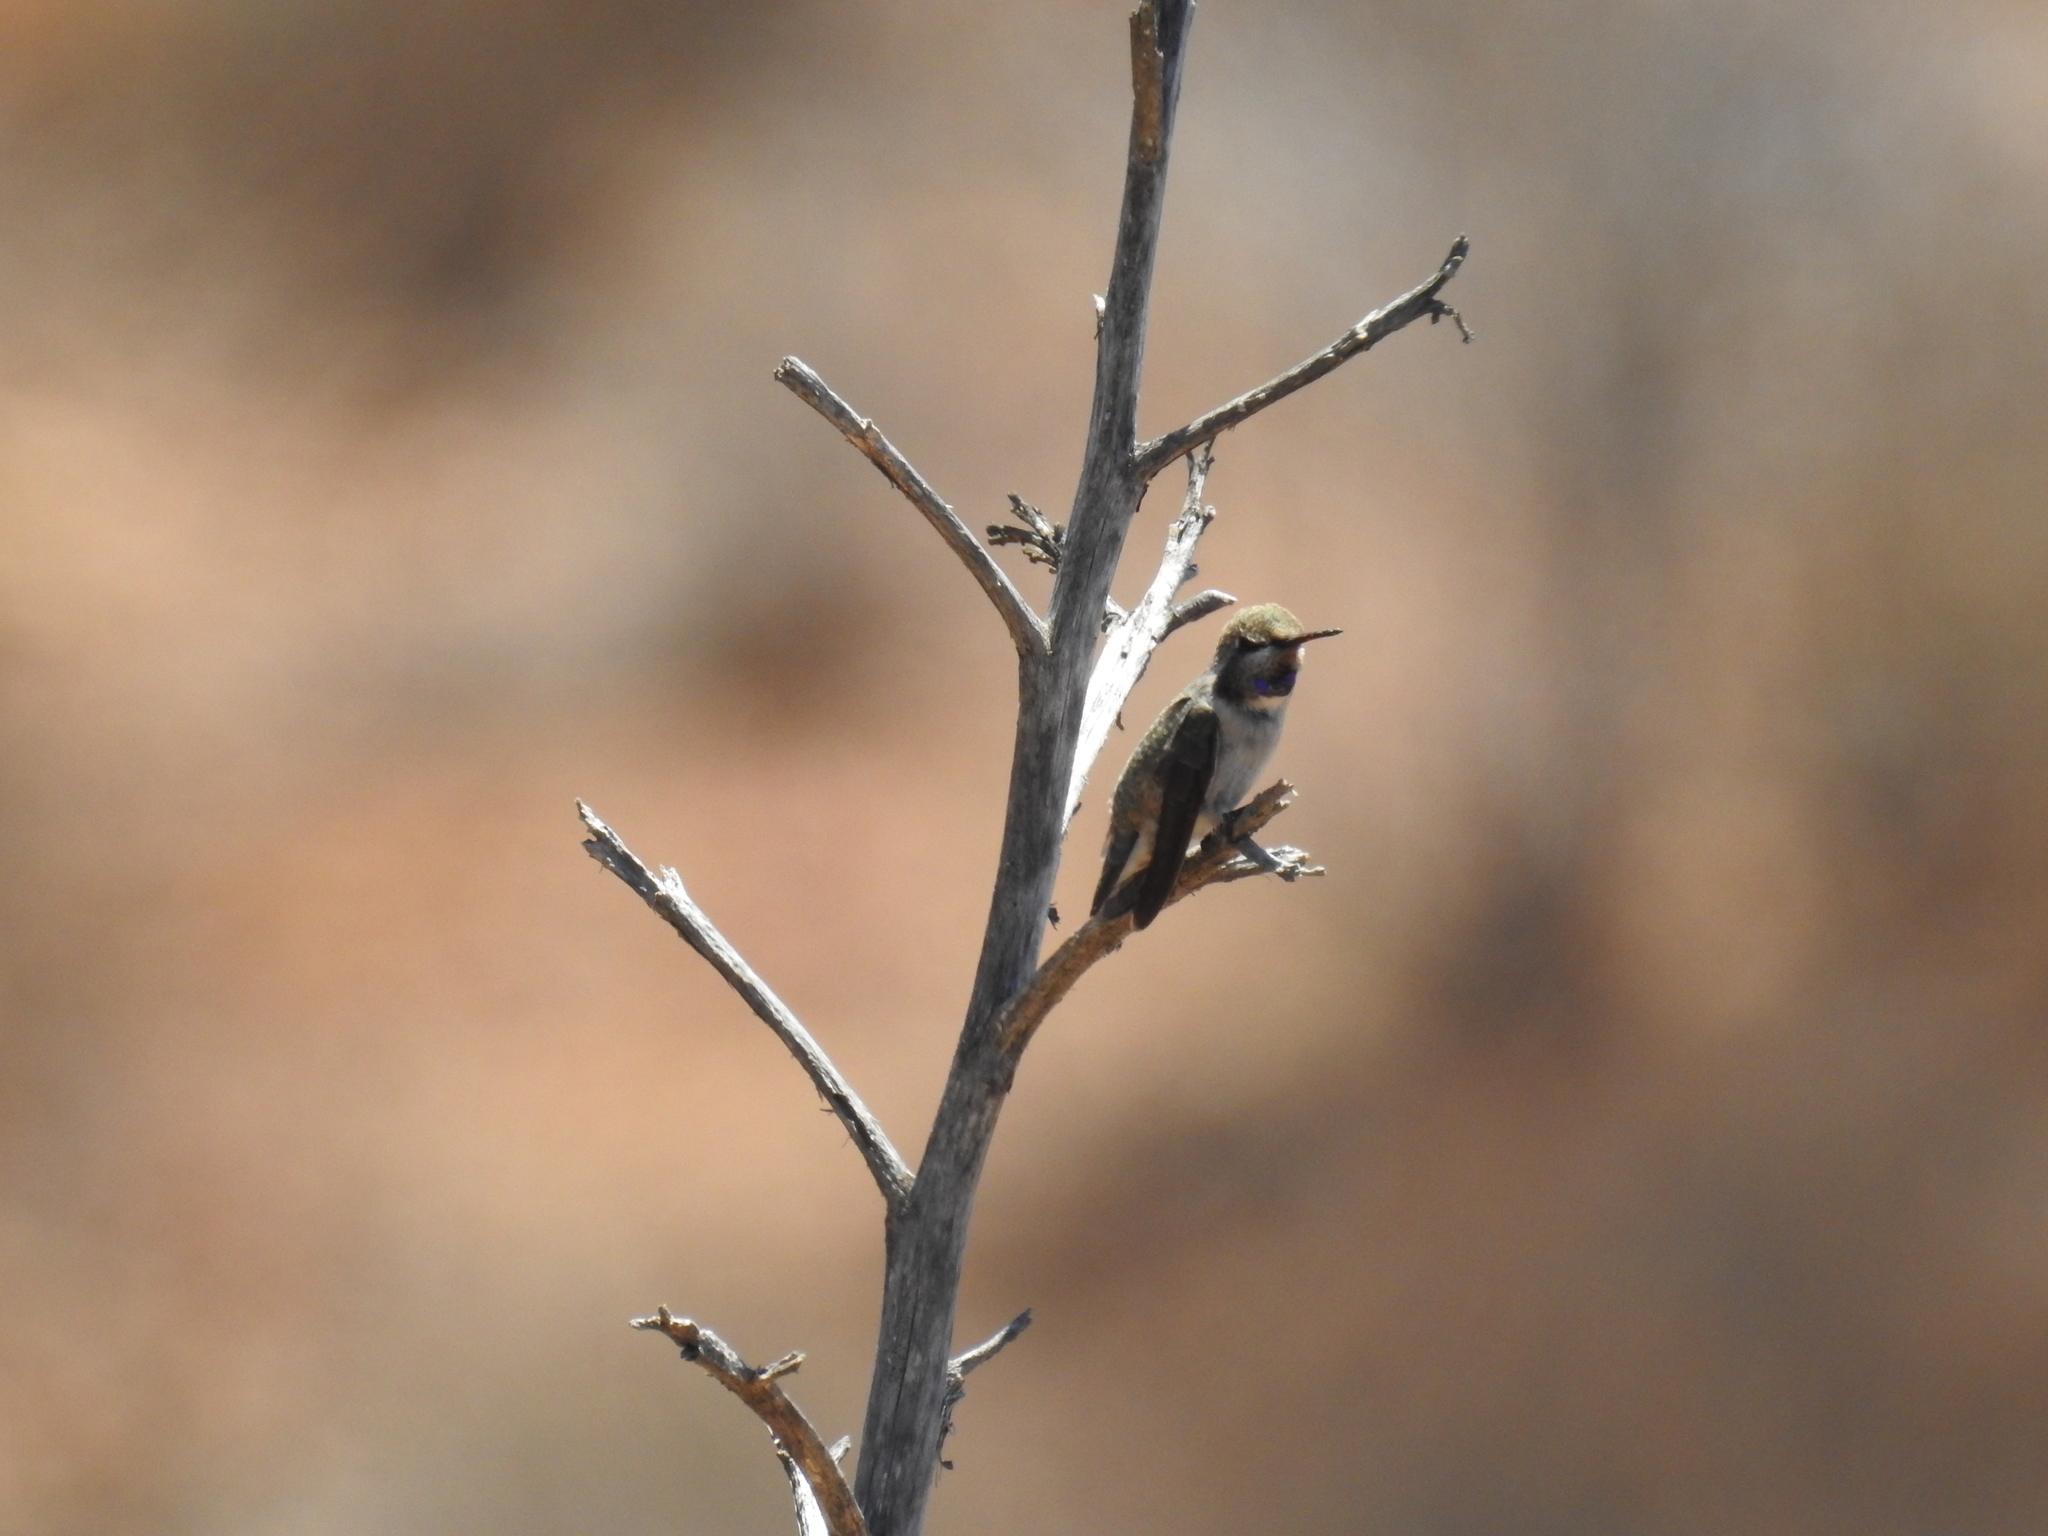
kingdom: Animalia
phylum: Chordata
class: Aves
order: Apodiformes
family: Trochilidae
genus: Calypte
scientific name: Calypte costae
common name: Costa's hummingbird
